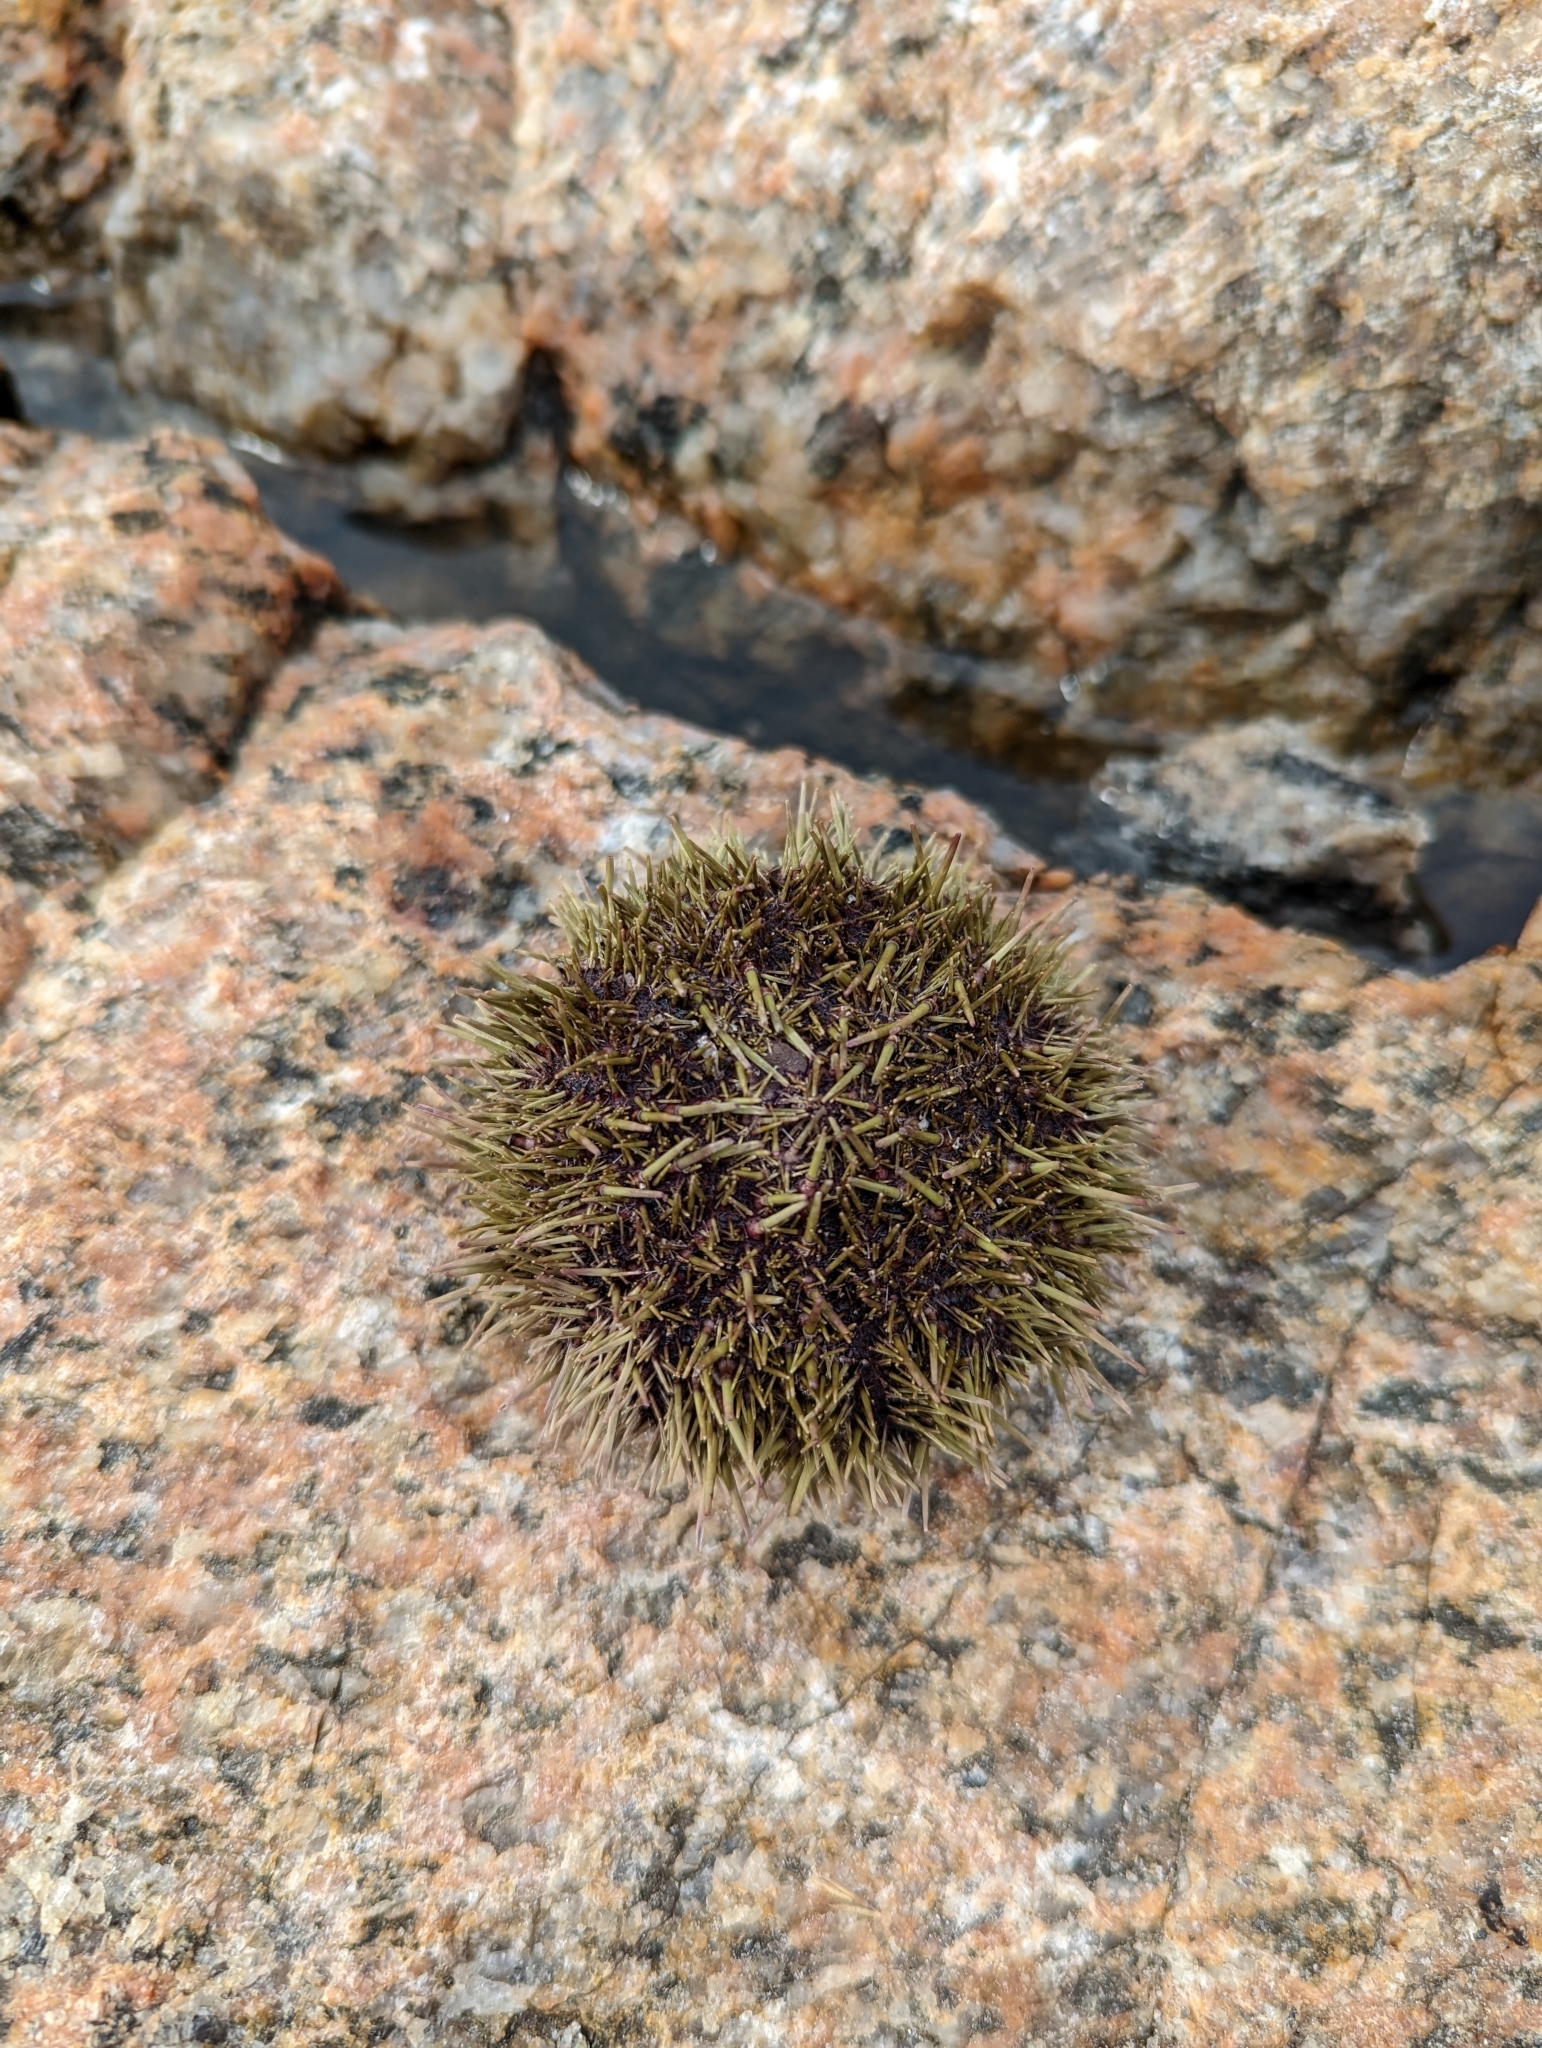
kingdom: Animalia
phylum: Echinodermata
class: Echinoidea
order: Camarodonta
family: Strongylocentrotidae
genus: Strongylocentrotus
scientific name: Strongylocentrotus droebachiensis
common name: Northern sea urchin
